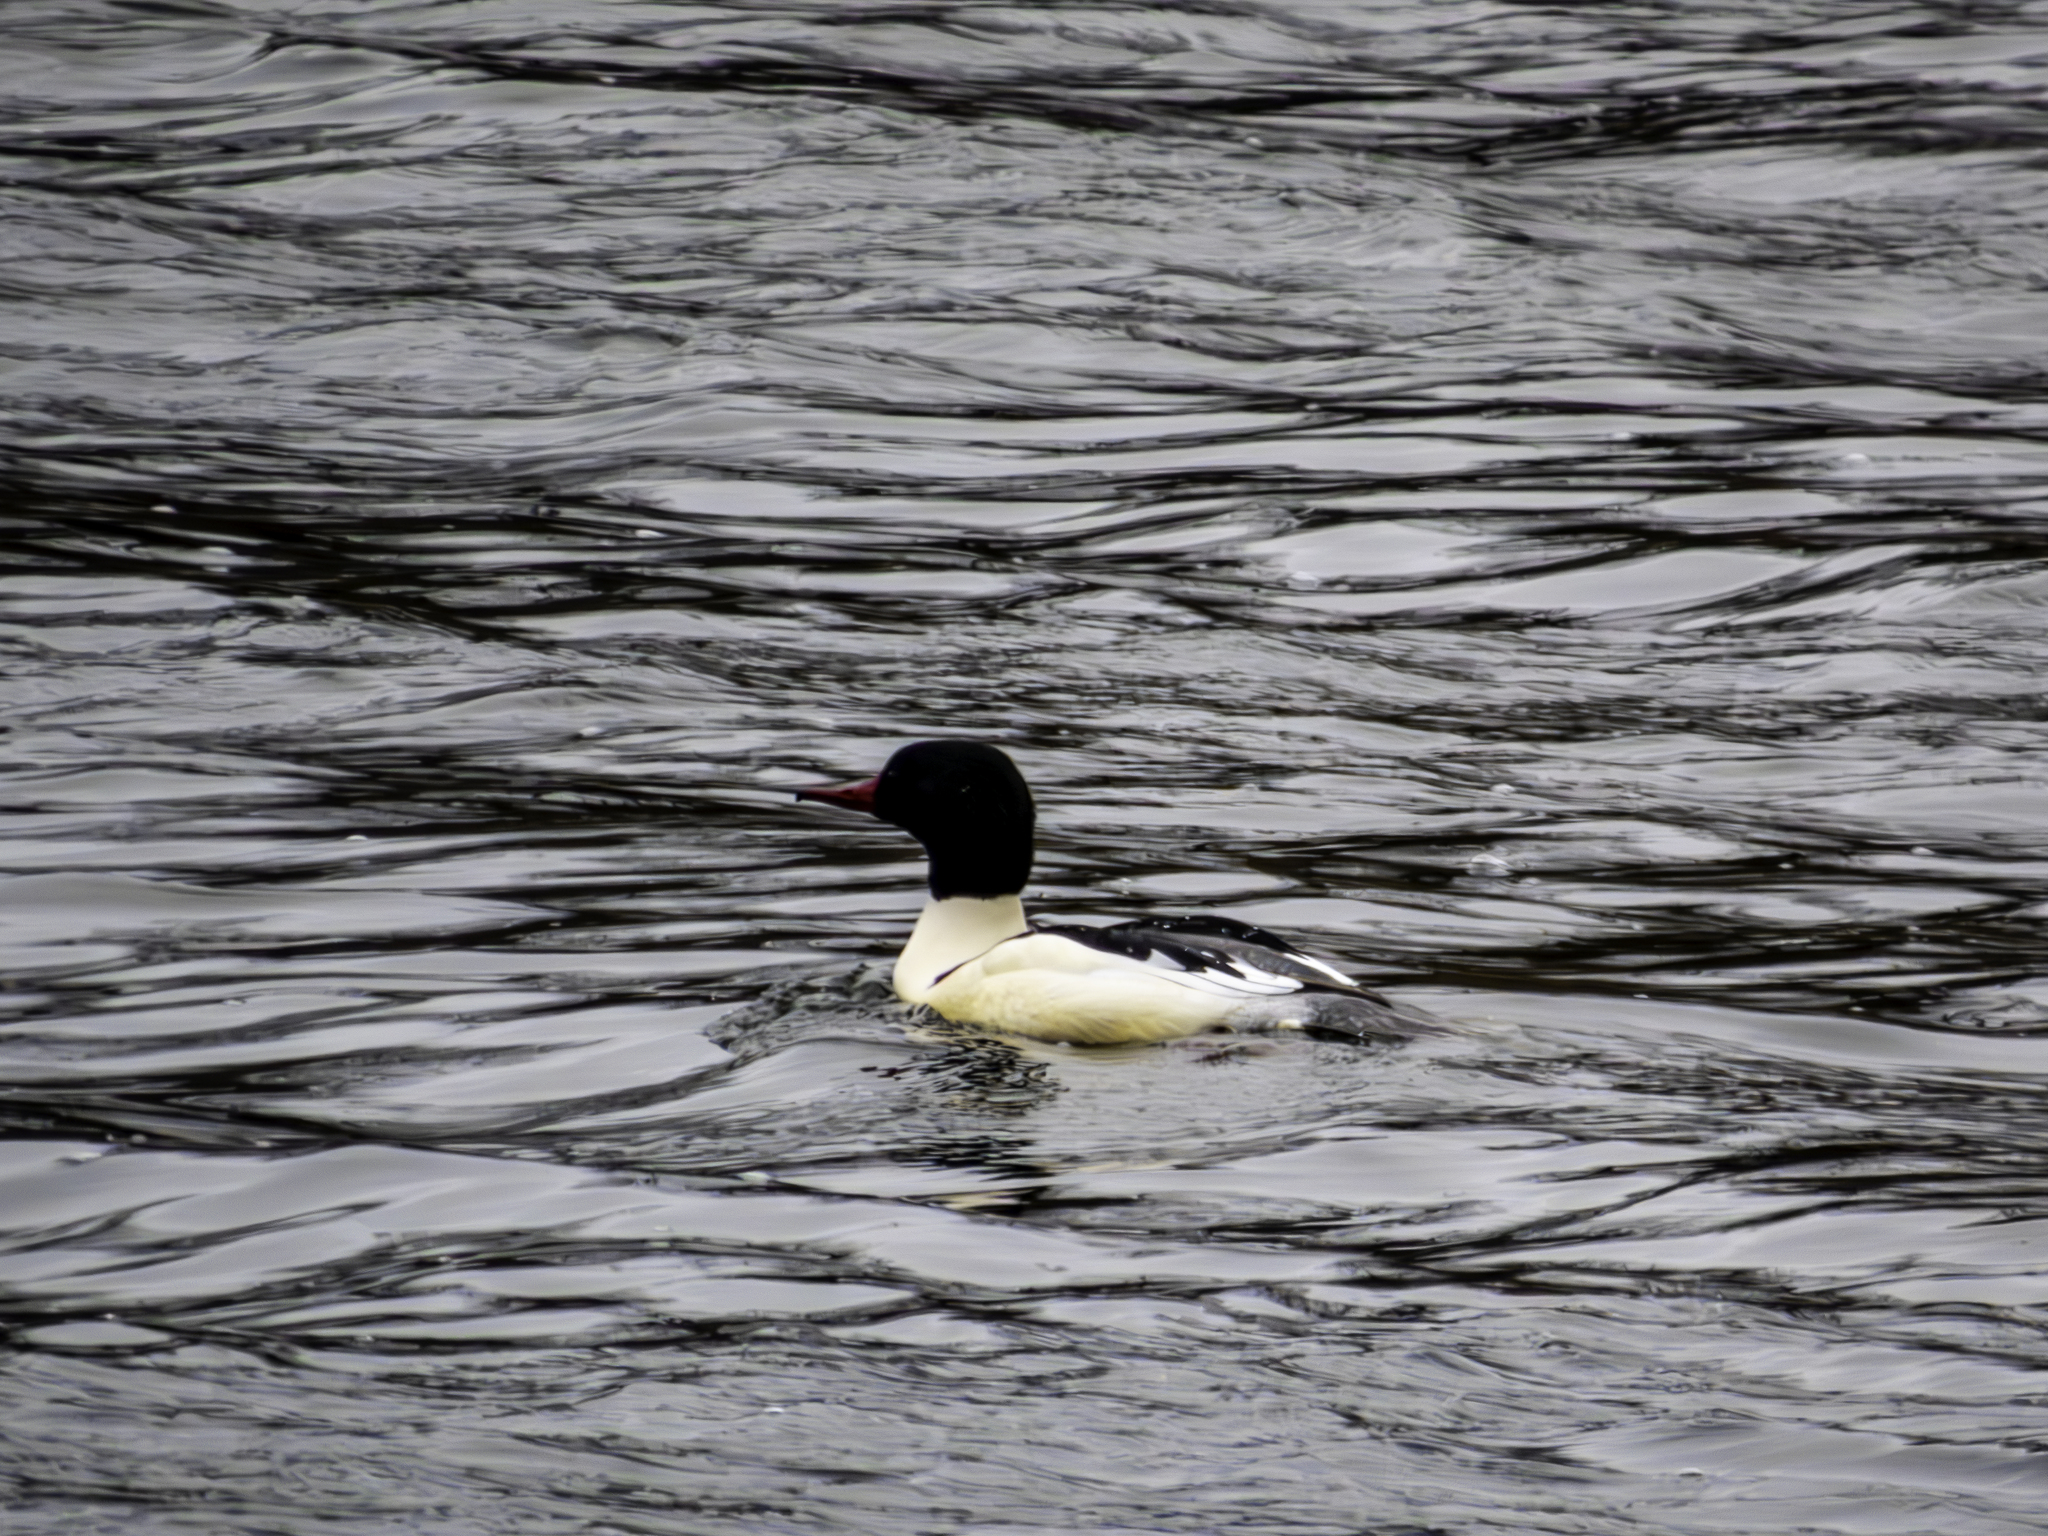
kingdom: Animalia
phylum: Chordata
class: Aves
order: Anseriformes
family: Anatidae
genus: Mergus
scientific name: Mergus merganser
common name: Common merganser
